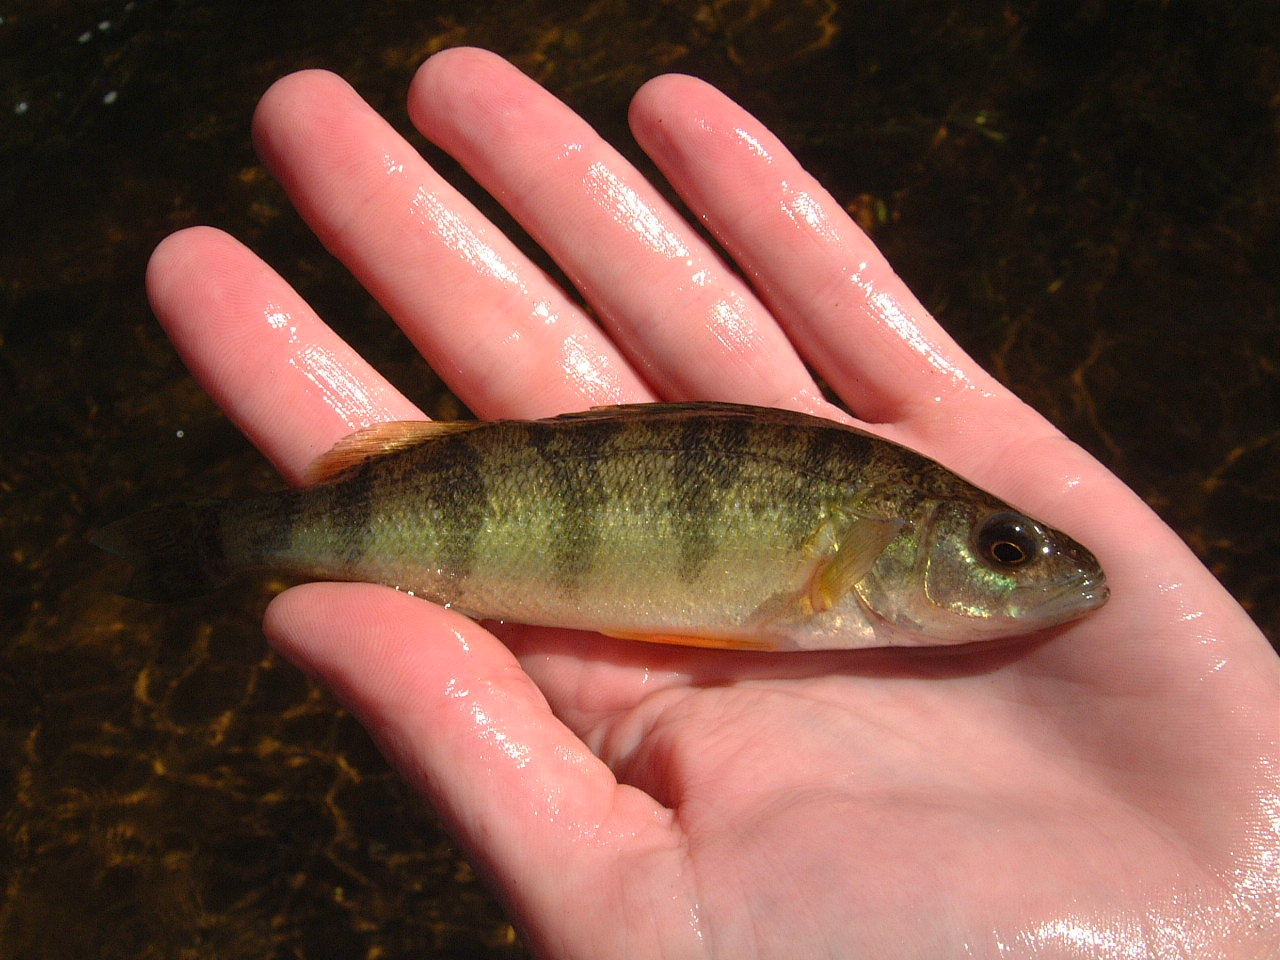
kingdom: Animalia
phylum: Chordata
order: Perciformes
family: Percidae
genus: Perca
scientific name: Perca flavescens
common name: Yellow perch
